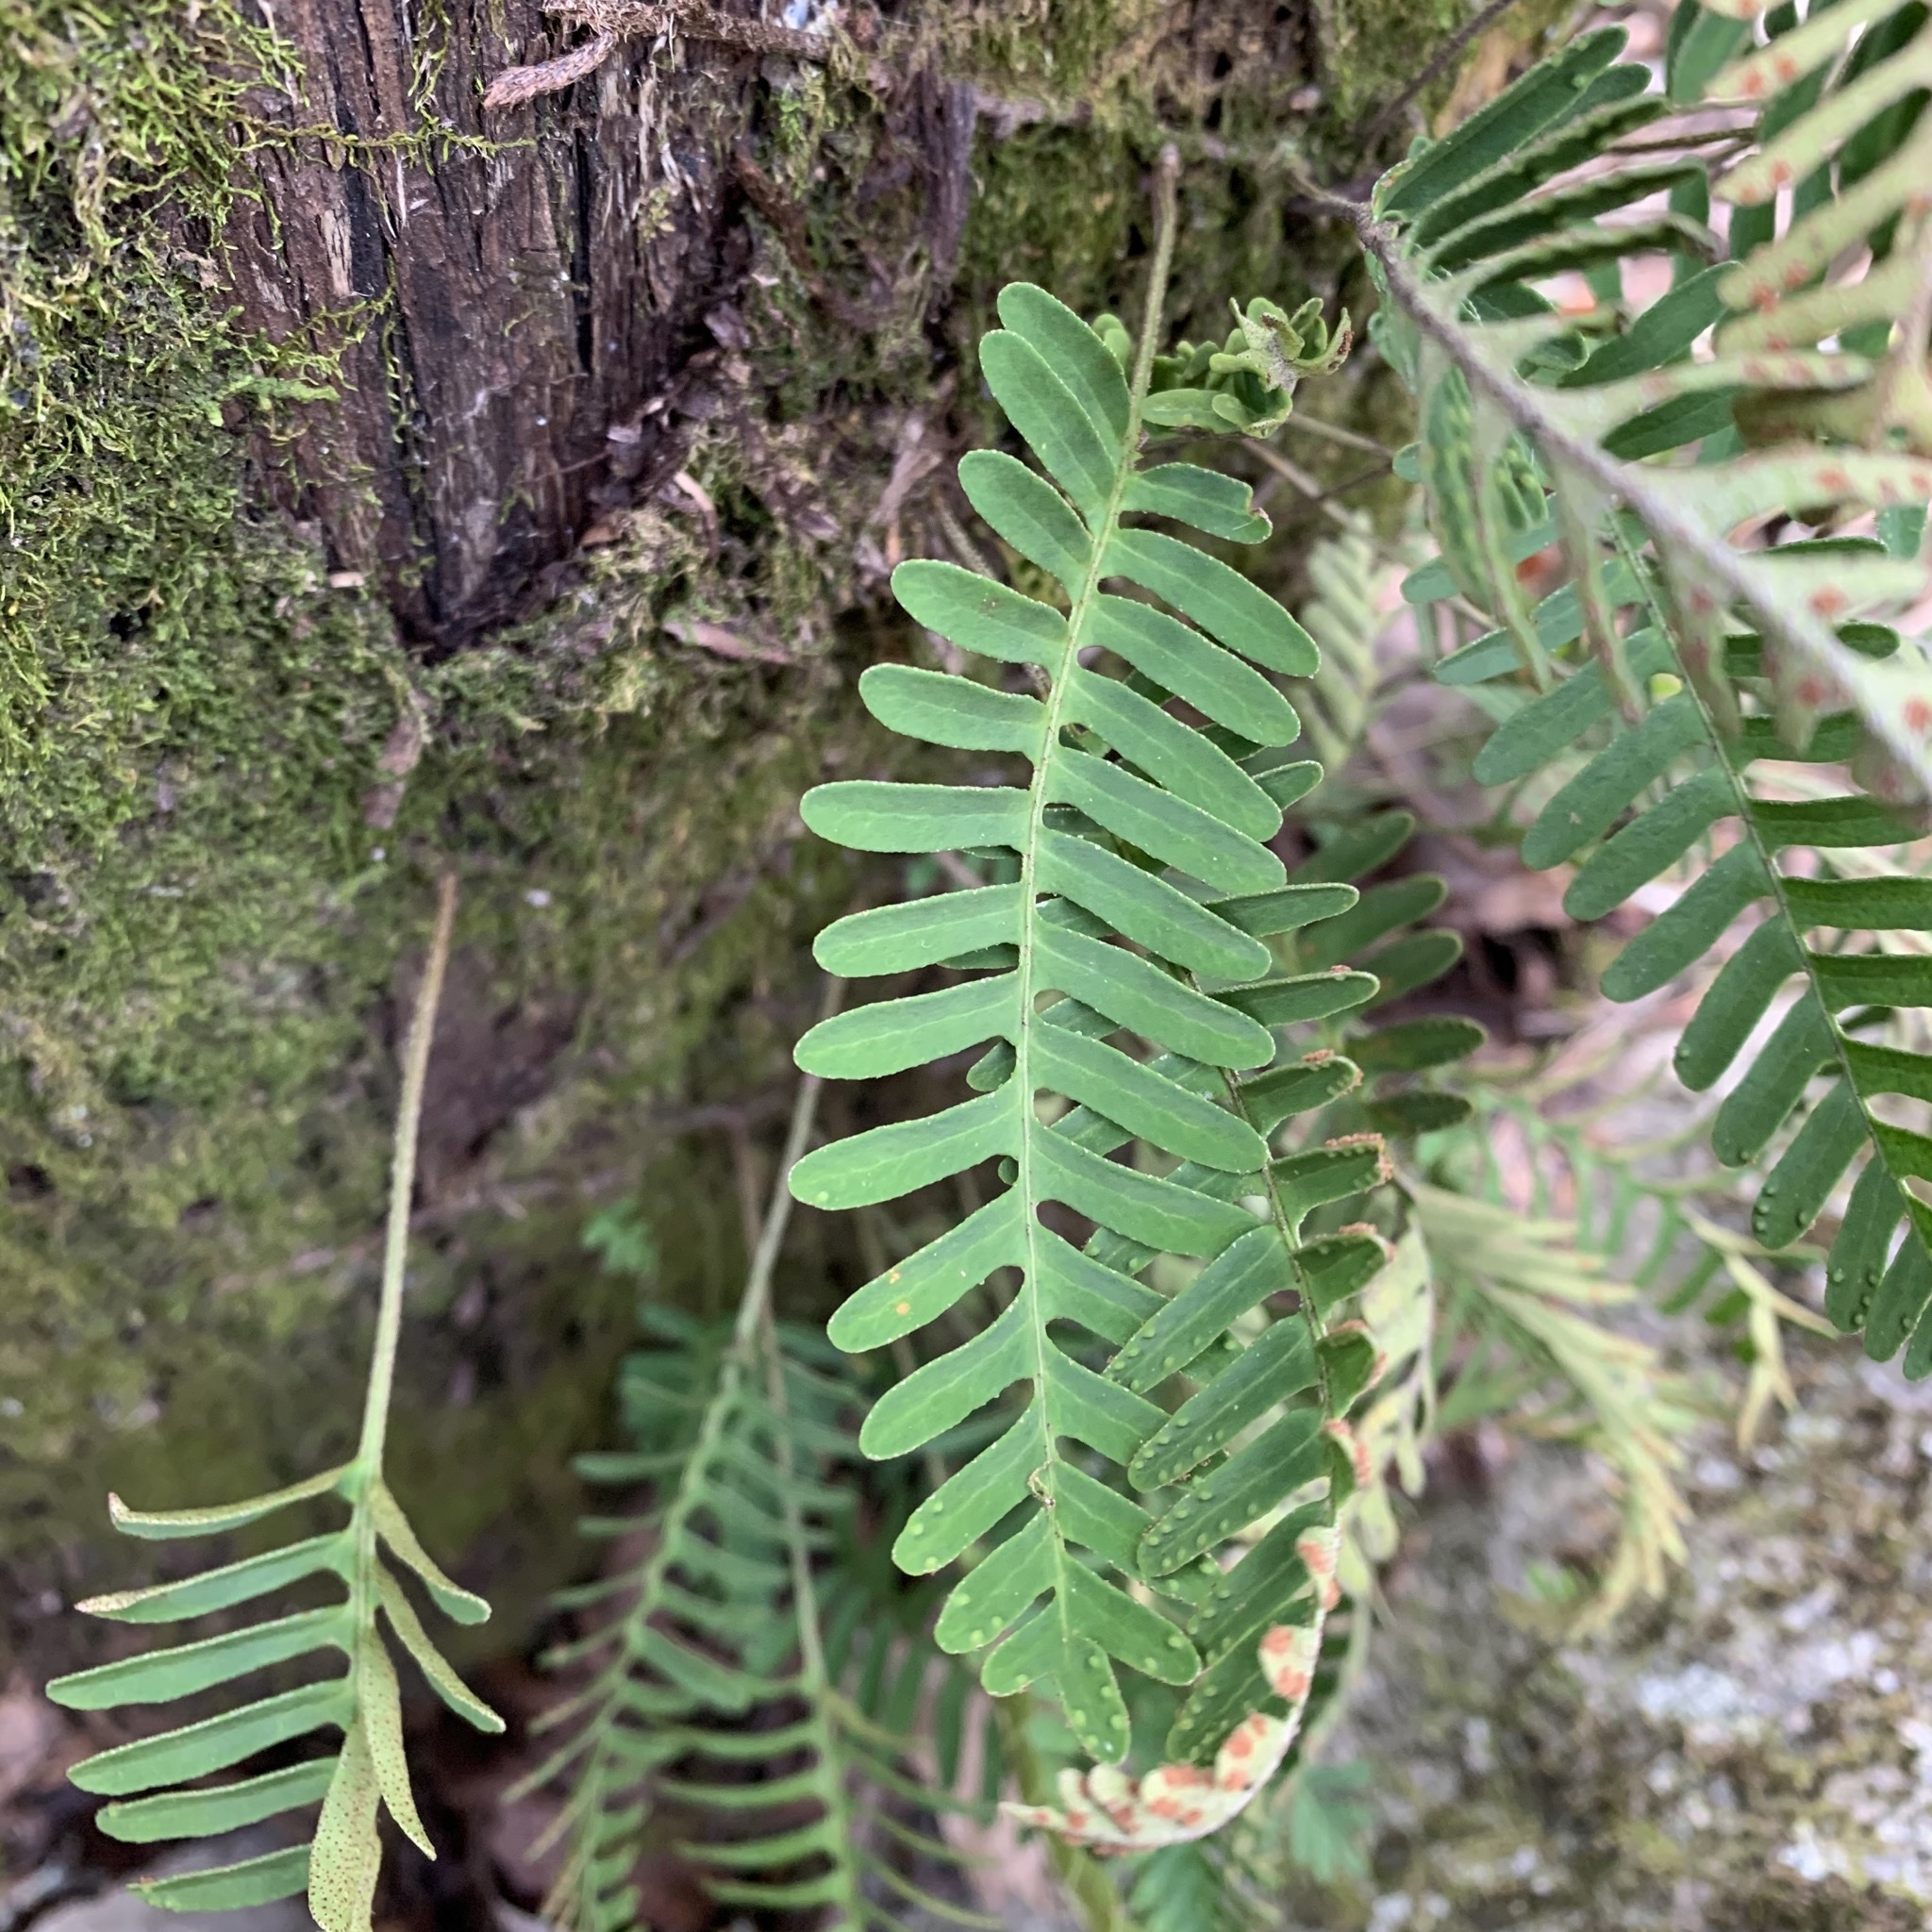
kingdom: Plantae
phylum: Tracheophyta
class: Polypodiopsida
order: Polypodiales
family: Polypodiaceae
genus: Pleopeltis
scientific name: Pleopeltis michauxiana
